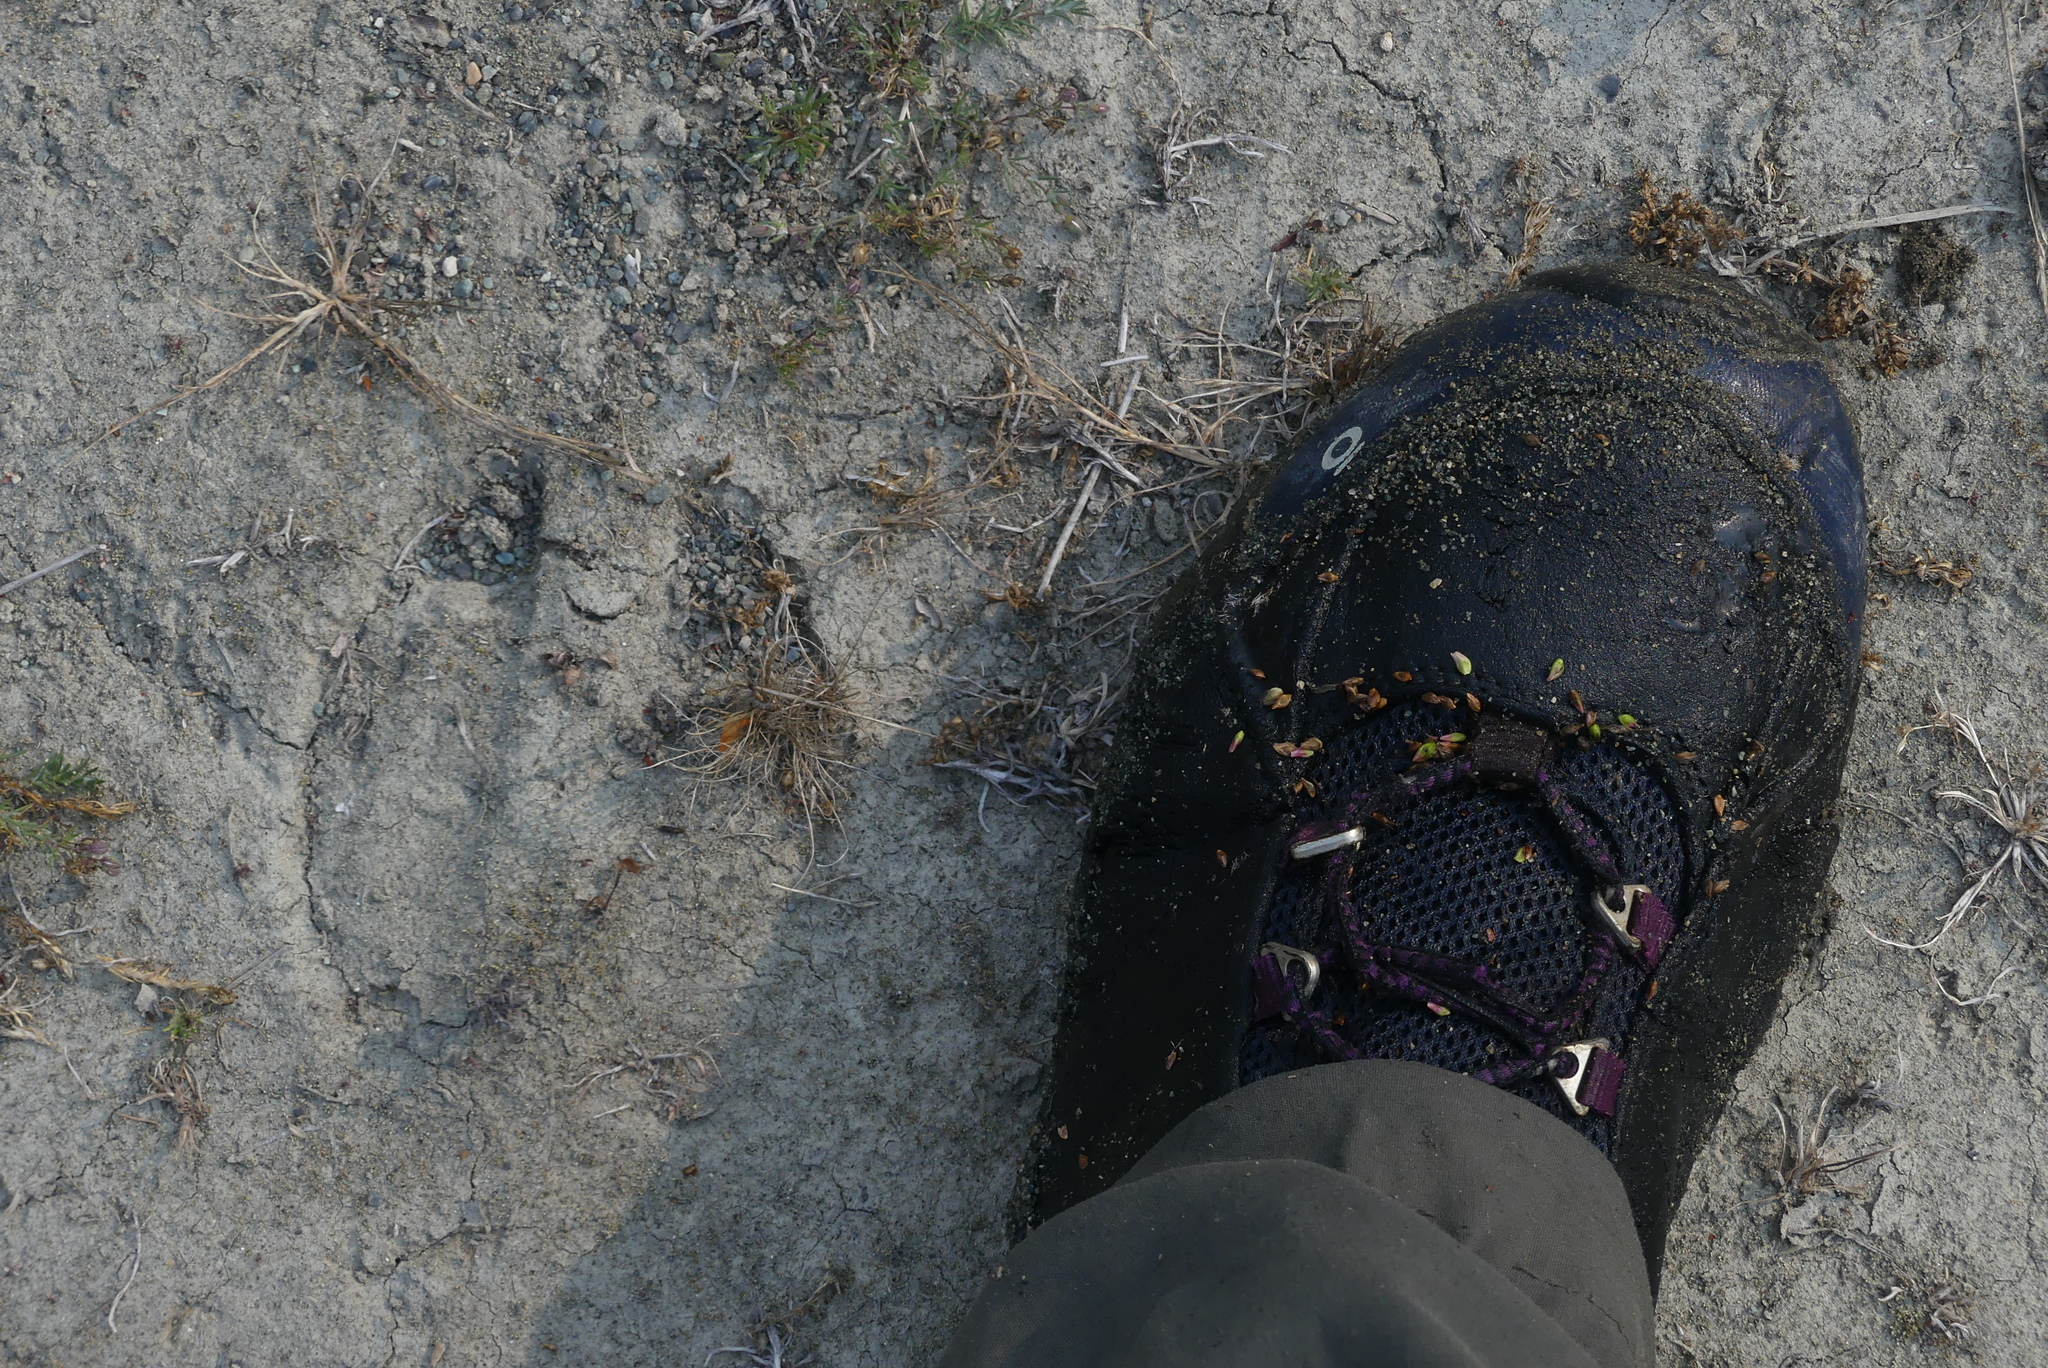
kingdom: Animalia
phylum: Chordata
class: Mammalia
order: Artiodactyla
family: Cervidae
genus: Cervus
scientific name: Cervus elaphus
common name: Red deer
